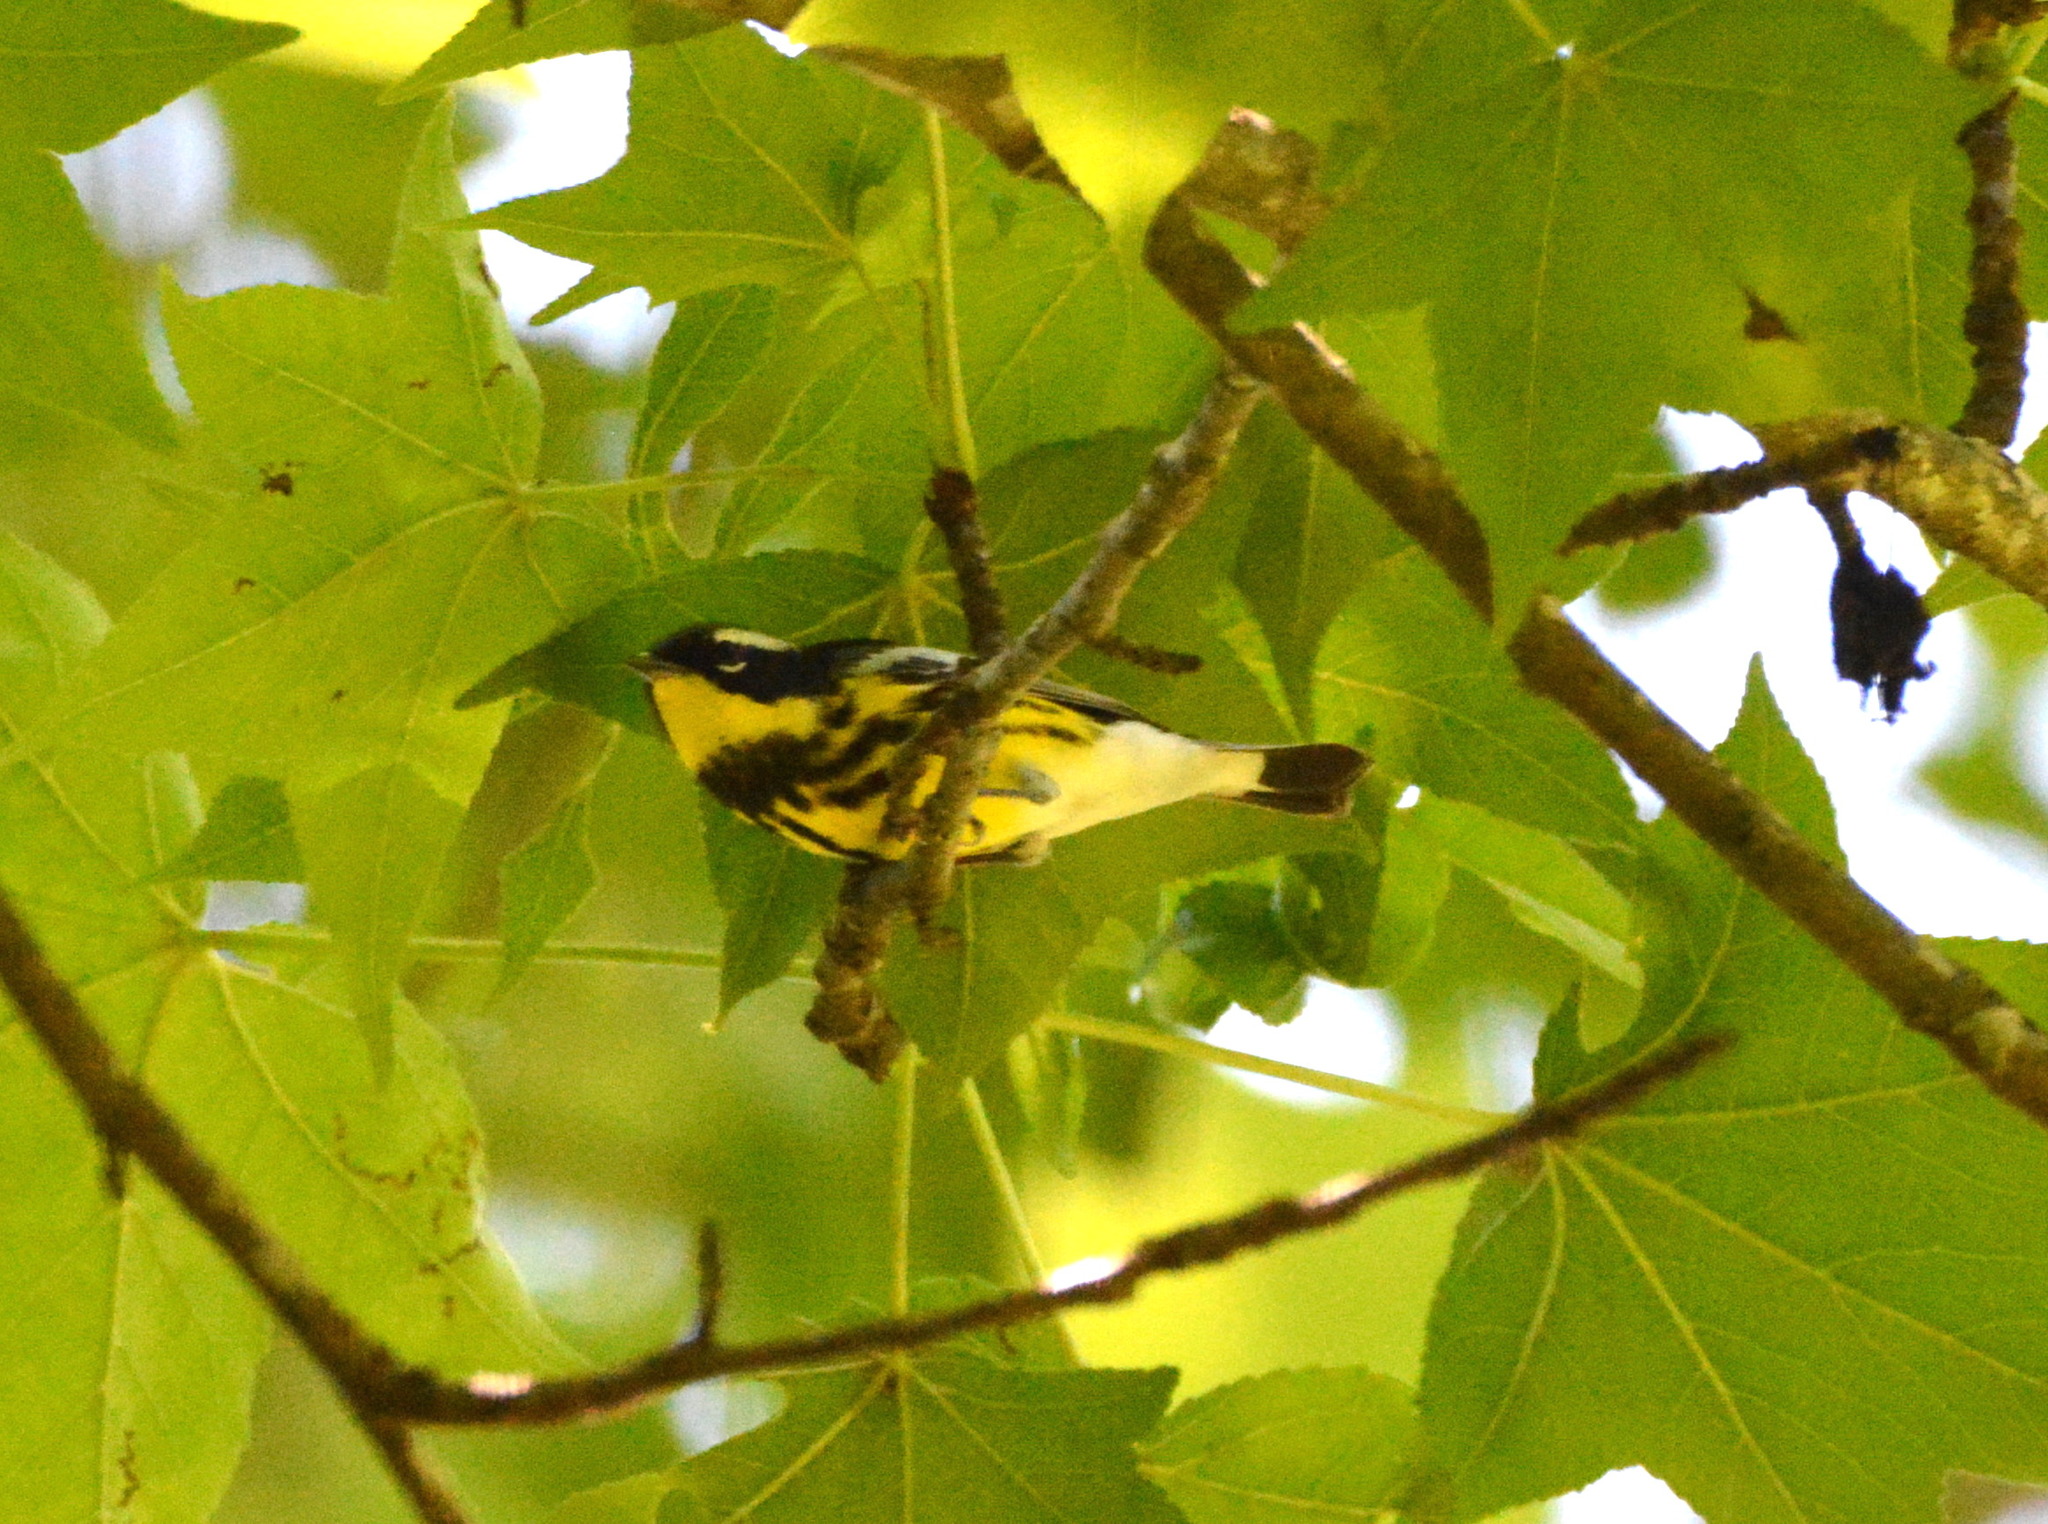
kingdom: Animalia
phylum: Chordata
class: Aves
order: Passeriformes
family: Parulidae
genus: Setophaga
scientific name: Setophaga magnolia
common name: Magnolia warbler
